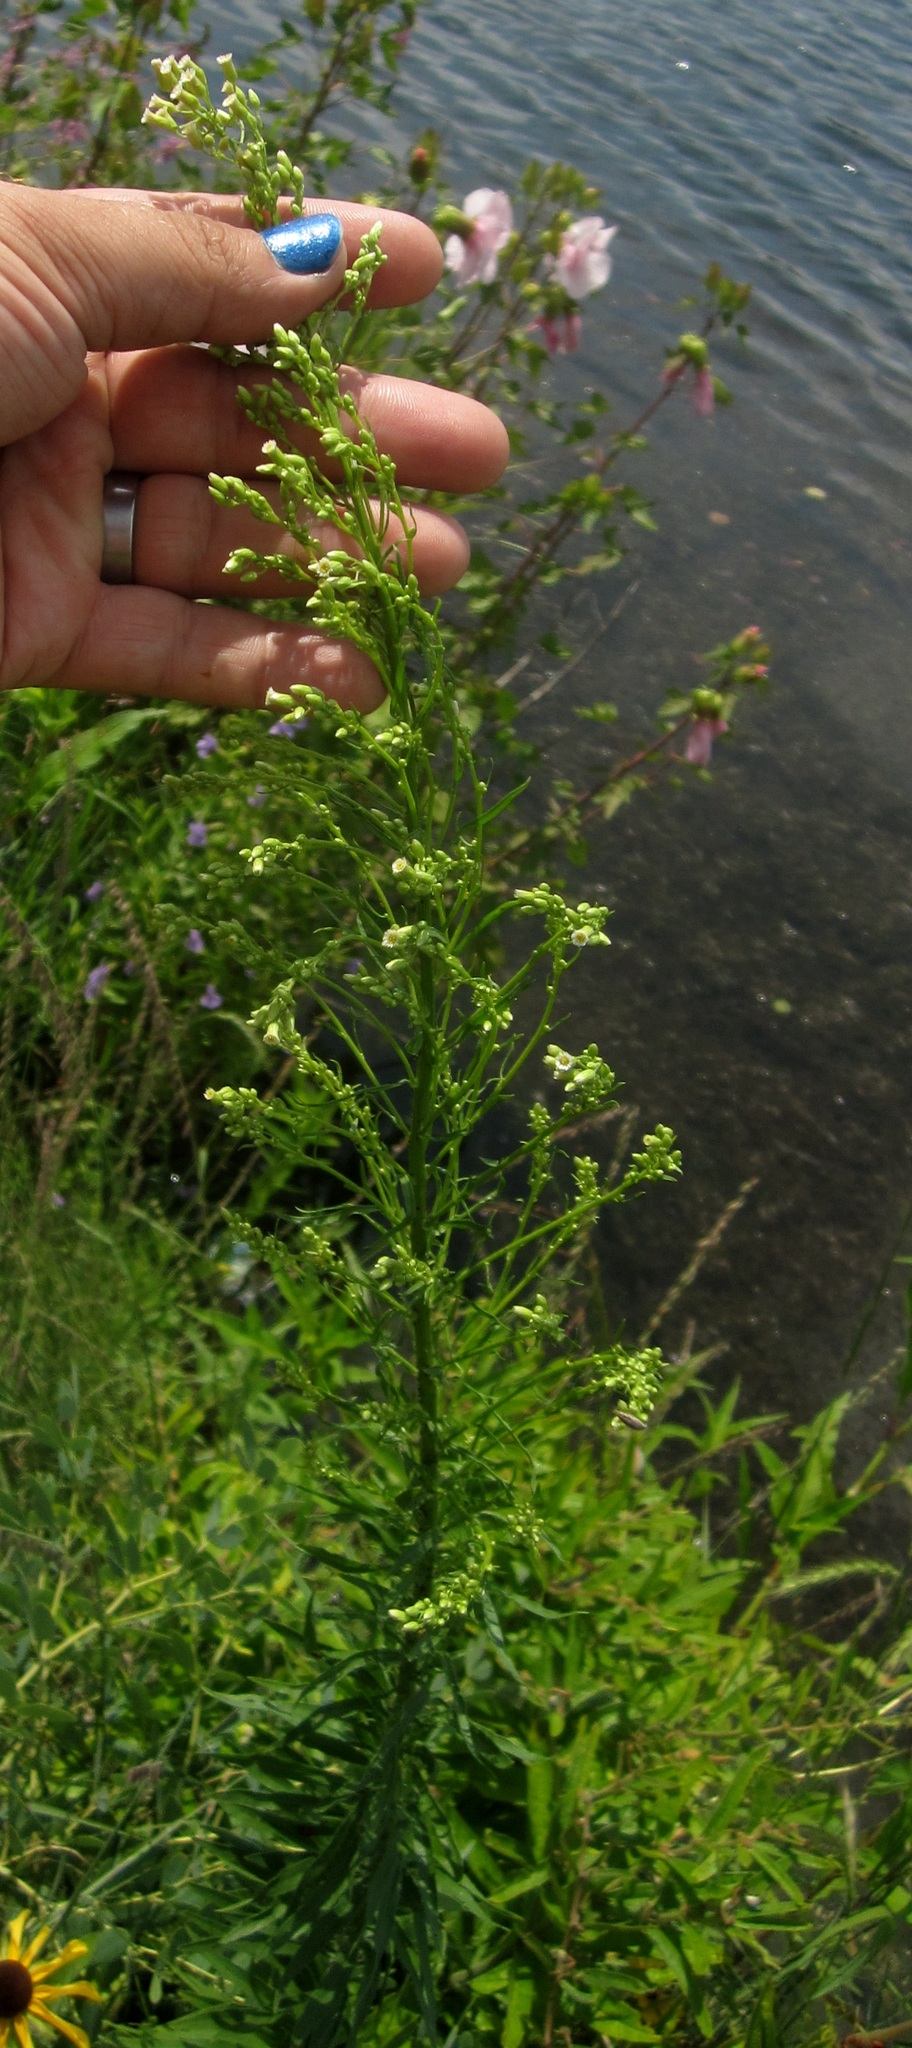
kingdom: Plantae
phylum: Tracheophyta
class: Magnoliopsida
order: Asterales
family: Asteraceae
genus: Erigeron
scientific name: Erigeron canadensis
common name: Canadian fleabane
